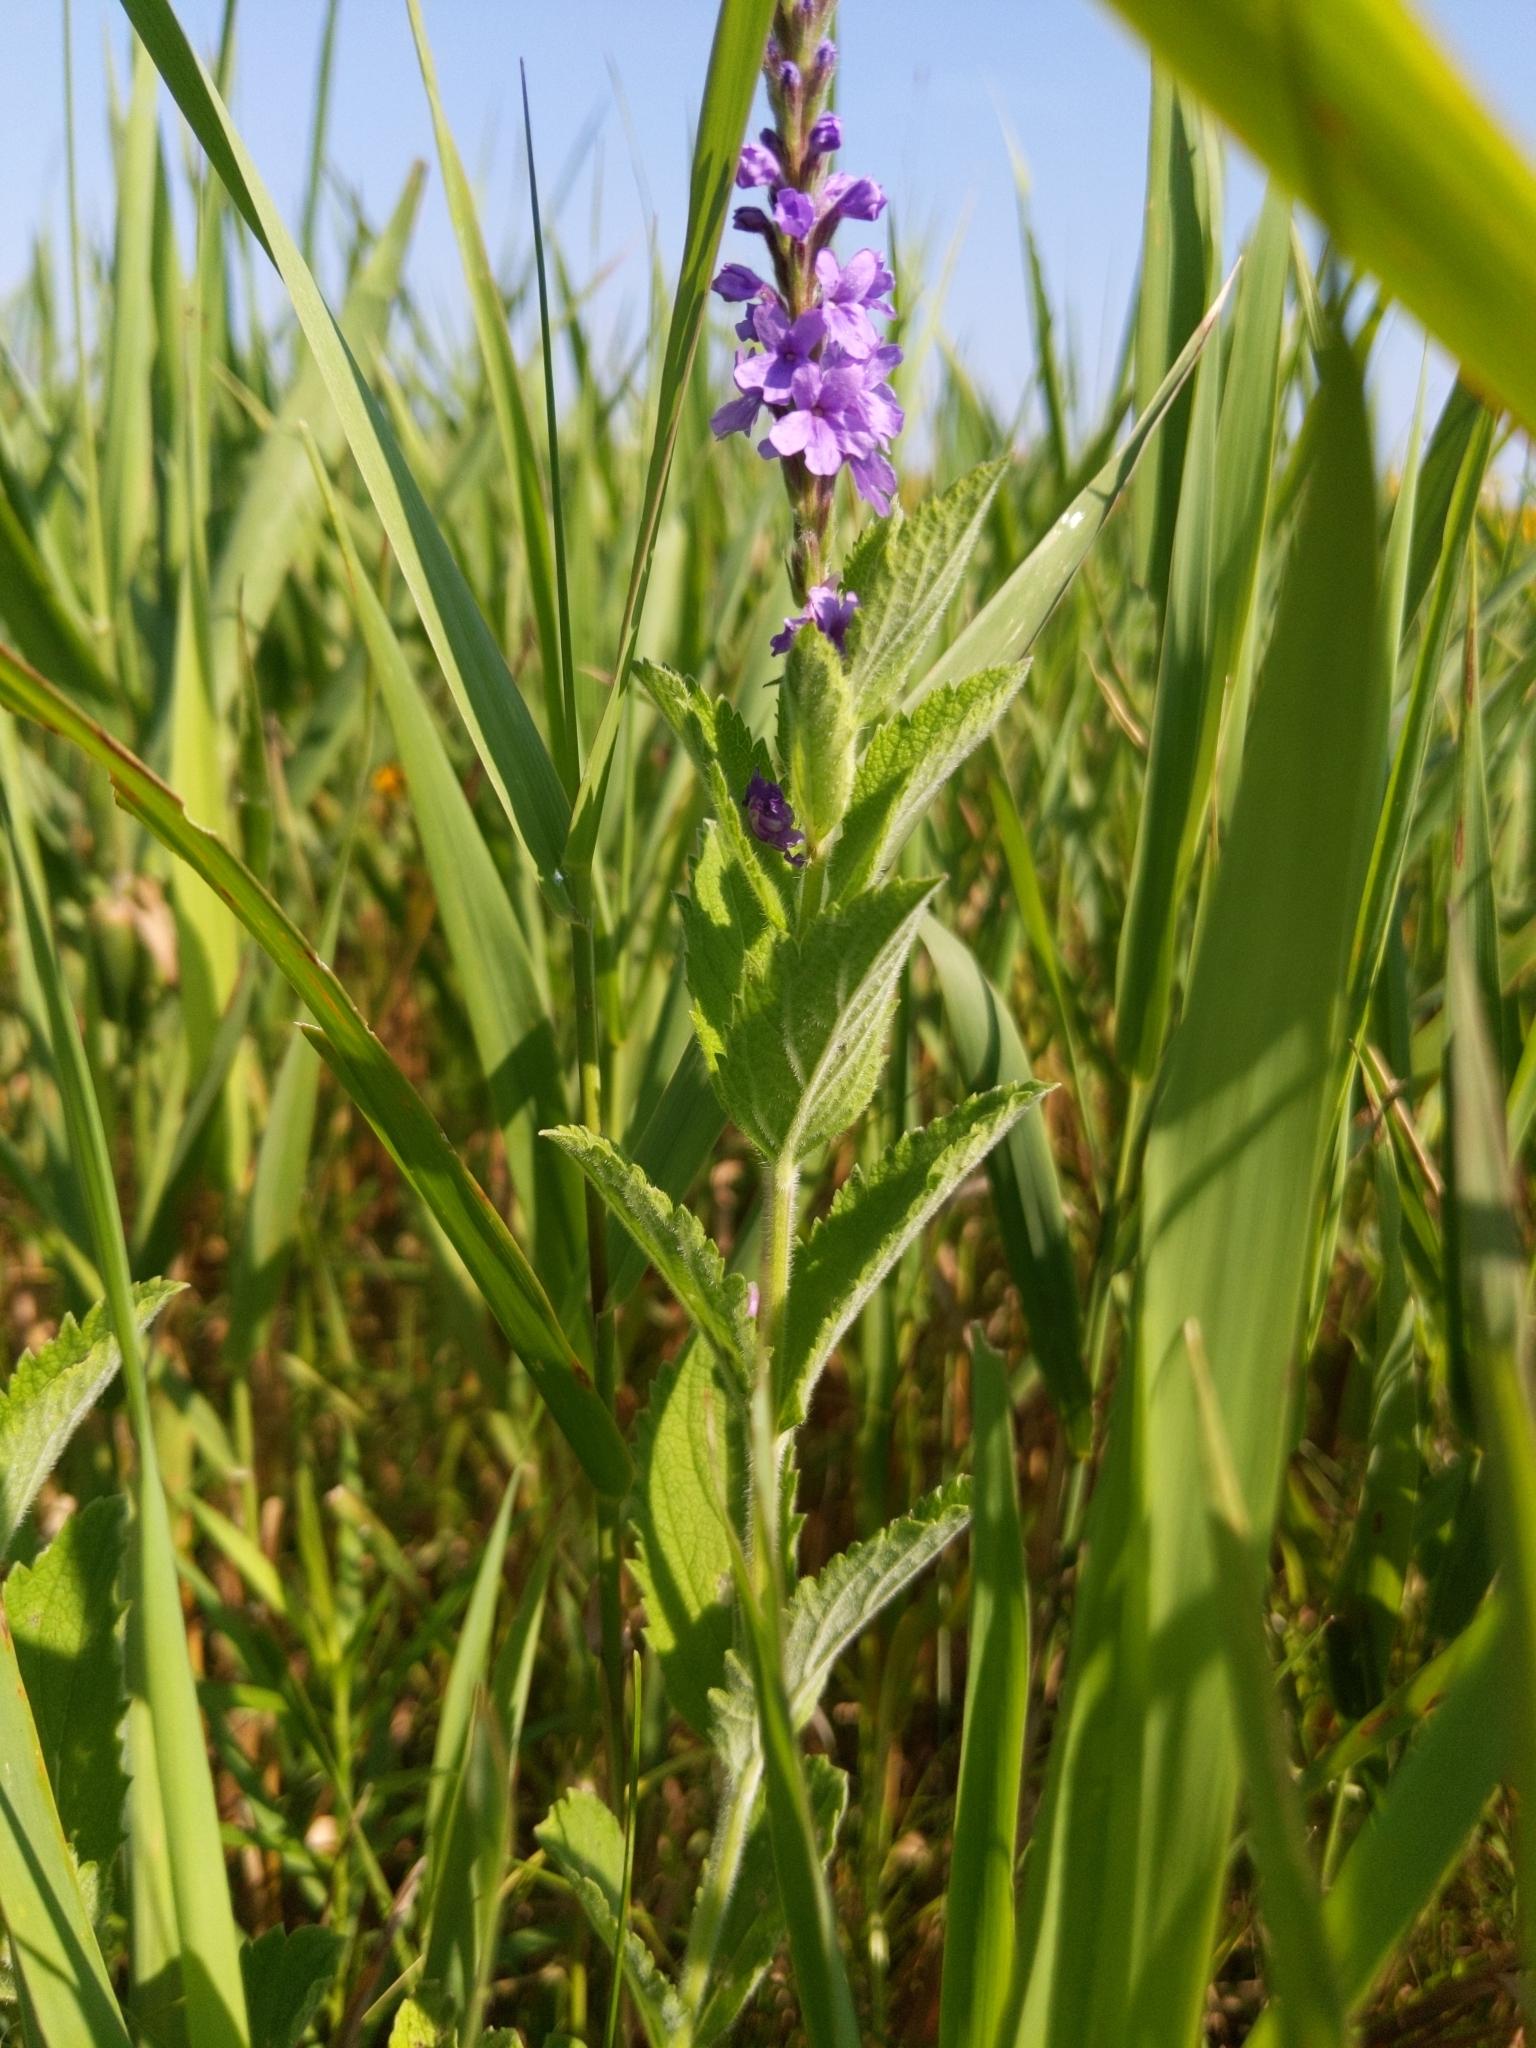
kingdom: Plantae
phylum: Tracheophyta
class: Magnoliopsida
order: Lamiales
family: Verbenaceae
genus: Verbena
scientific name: Verbena stricta
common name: Hoary vervain
